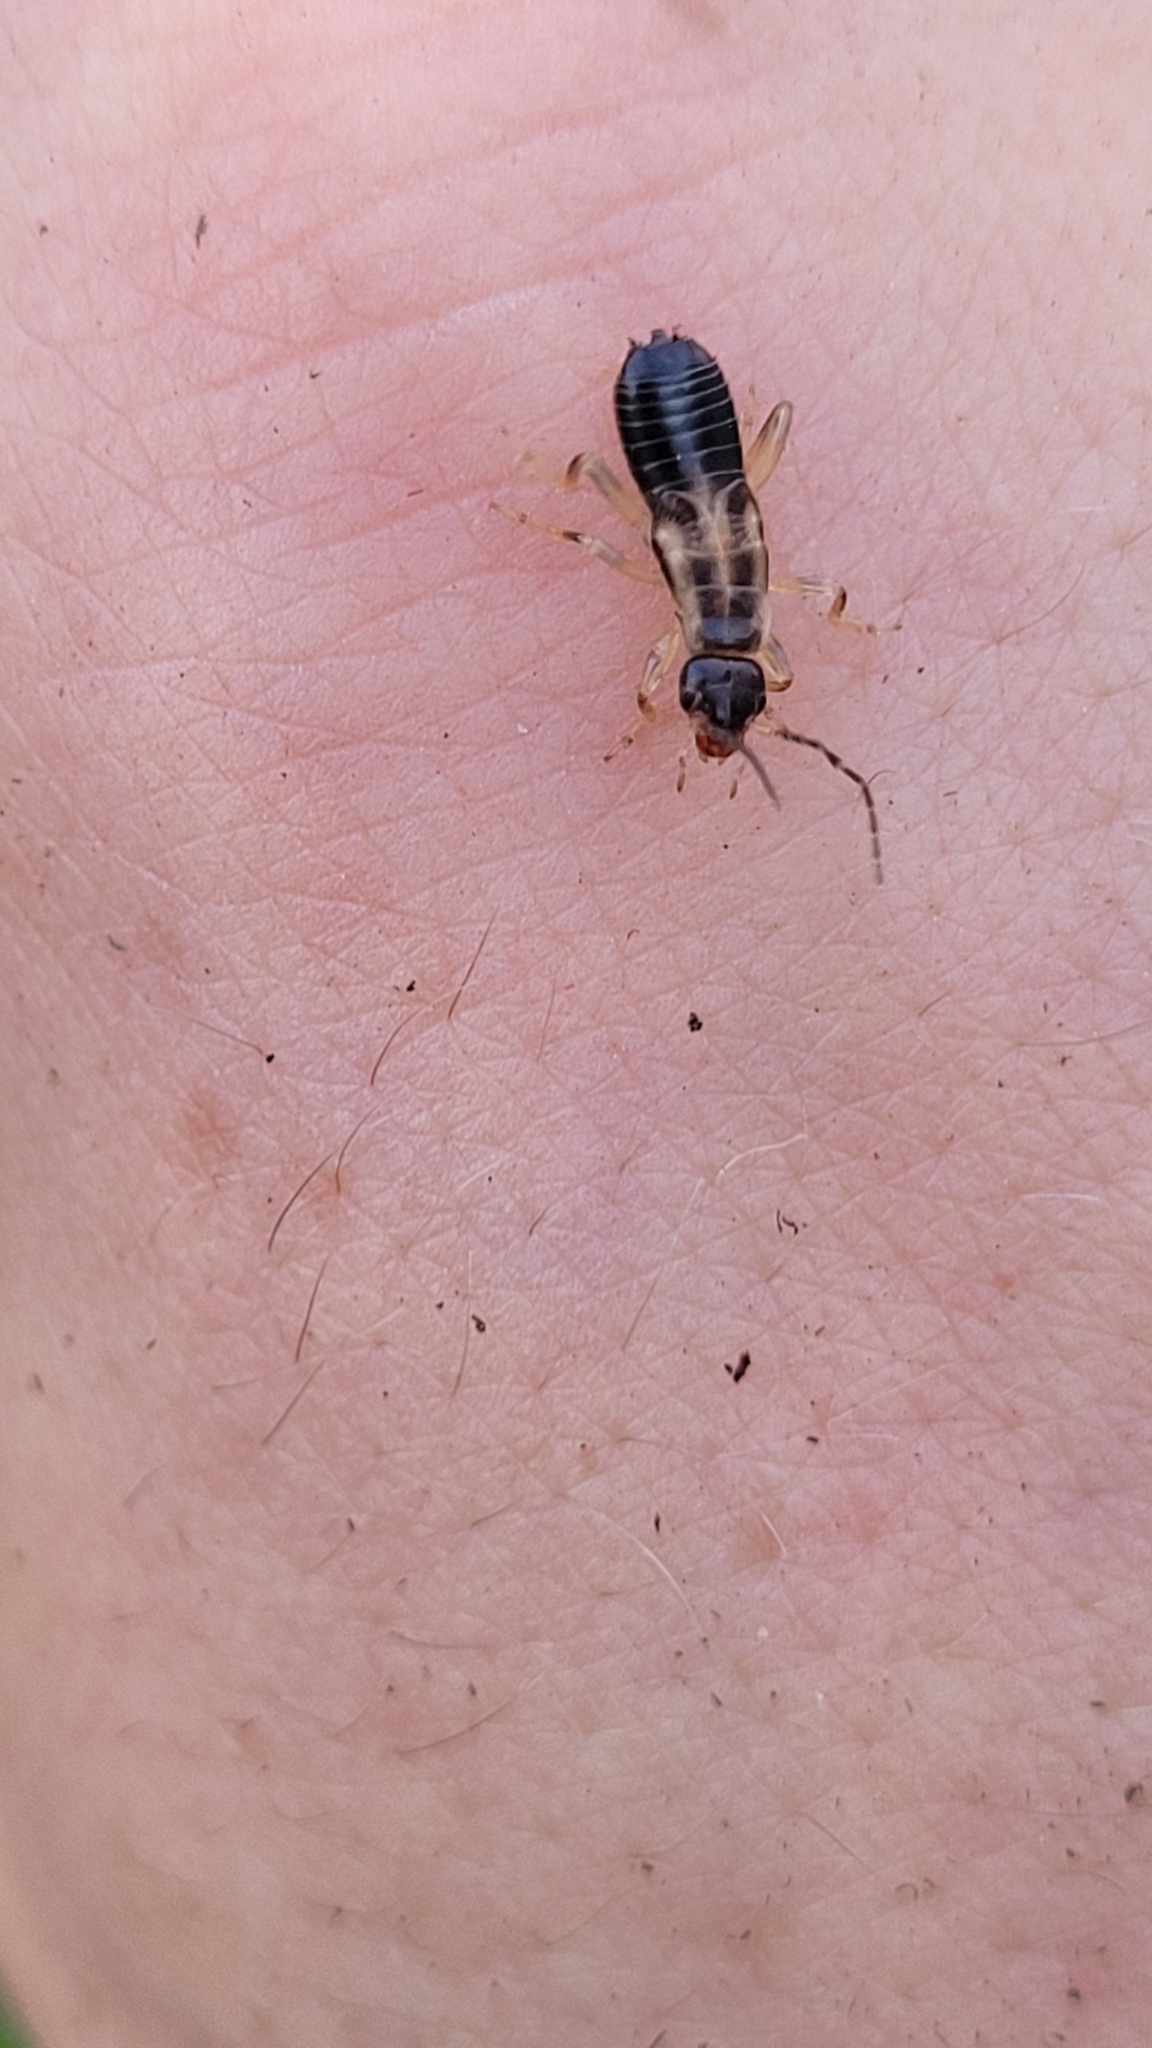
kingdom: Animalia
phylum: Arthropoda
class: Insecta
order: Dermaptera
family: Forficulidae
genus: Forficula
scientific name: Forficula
